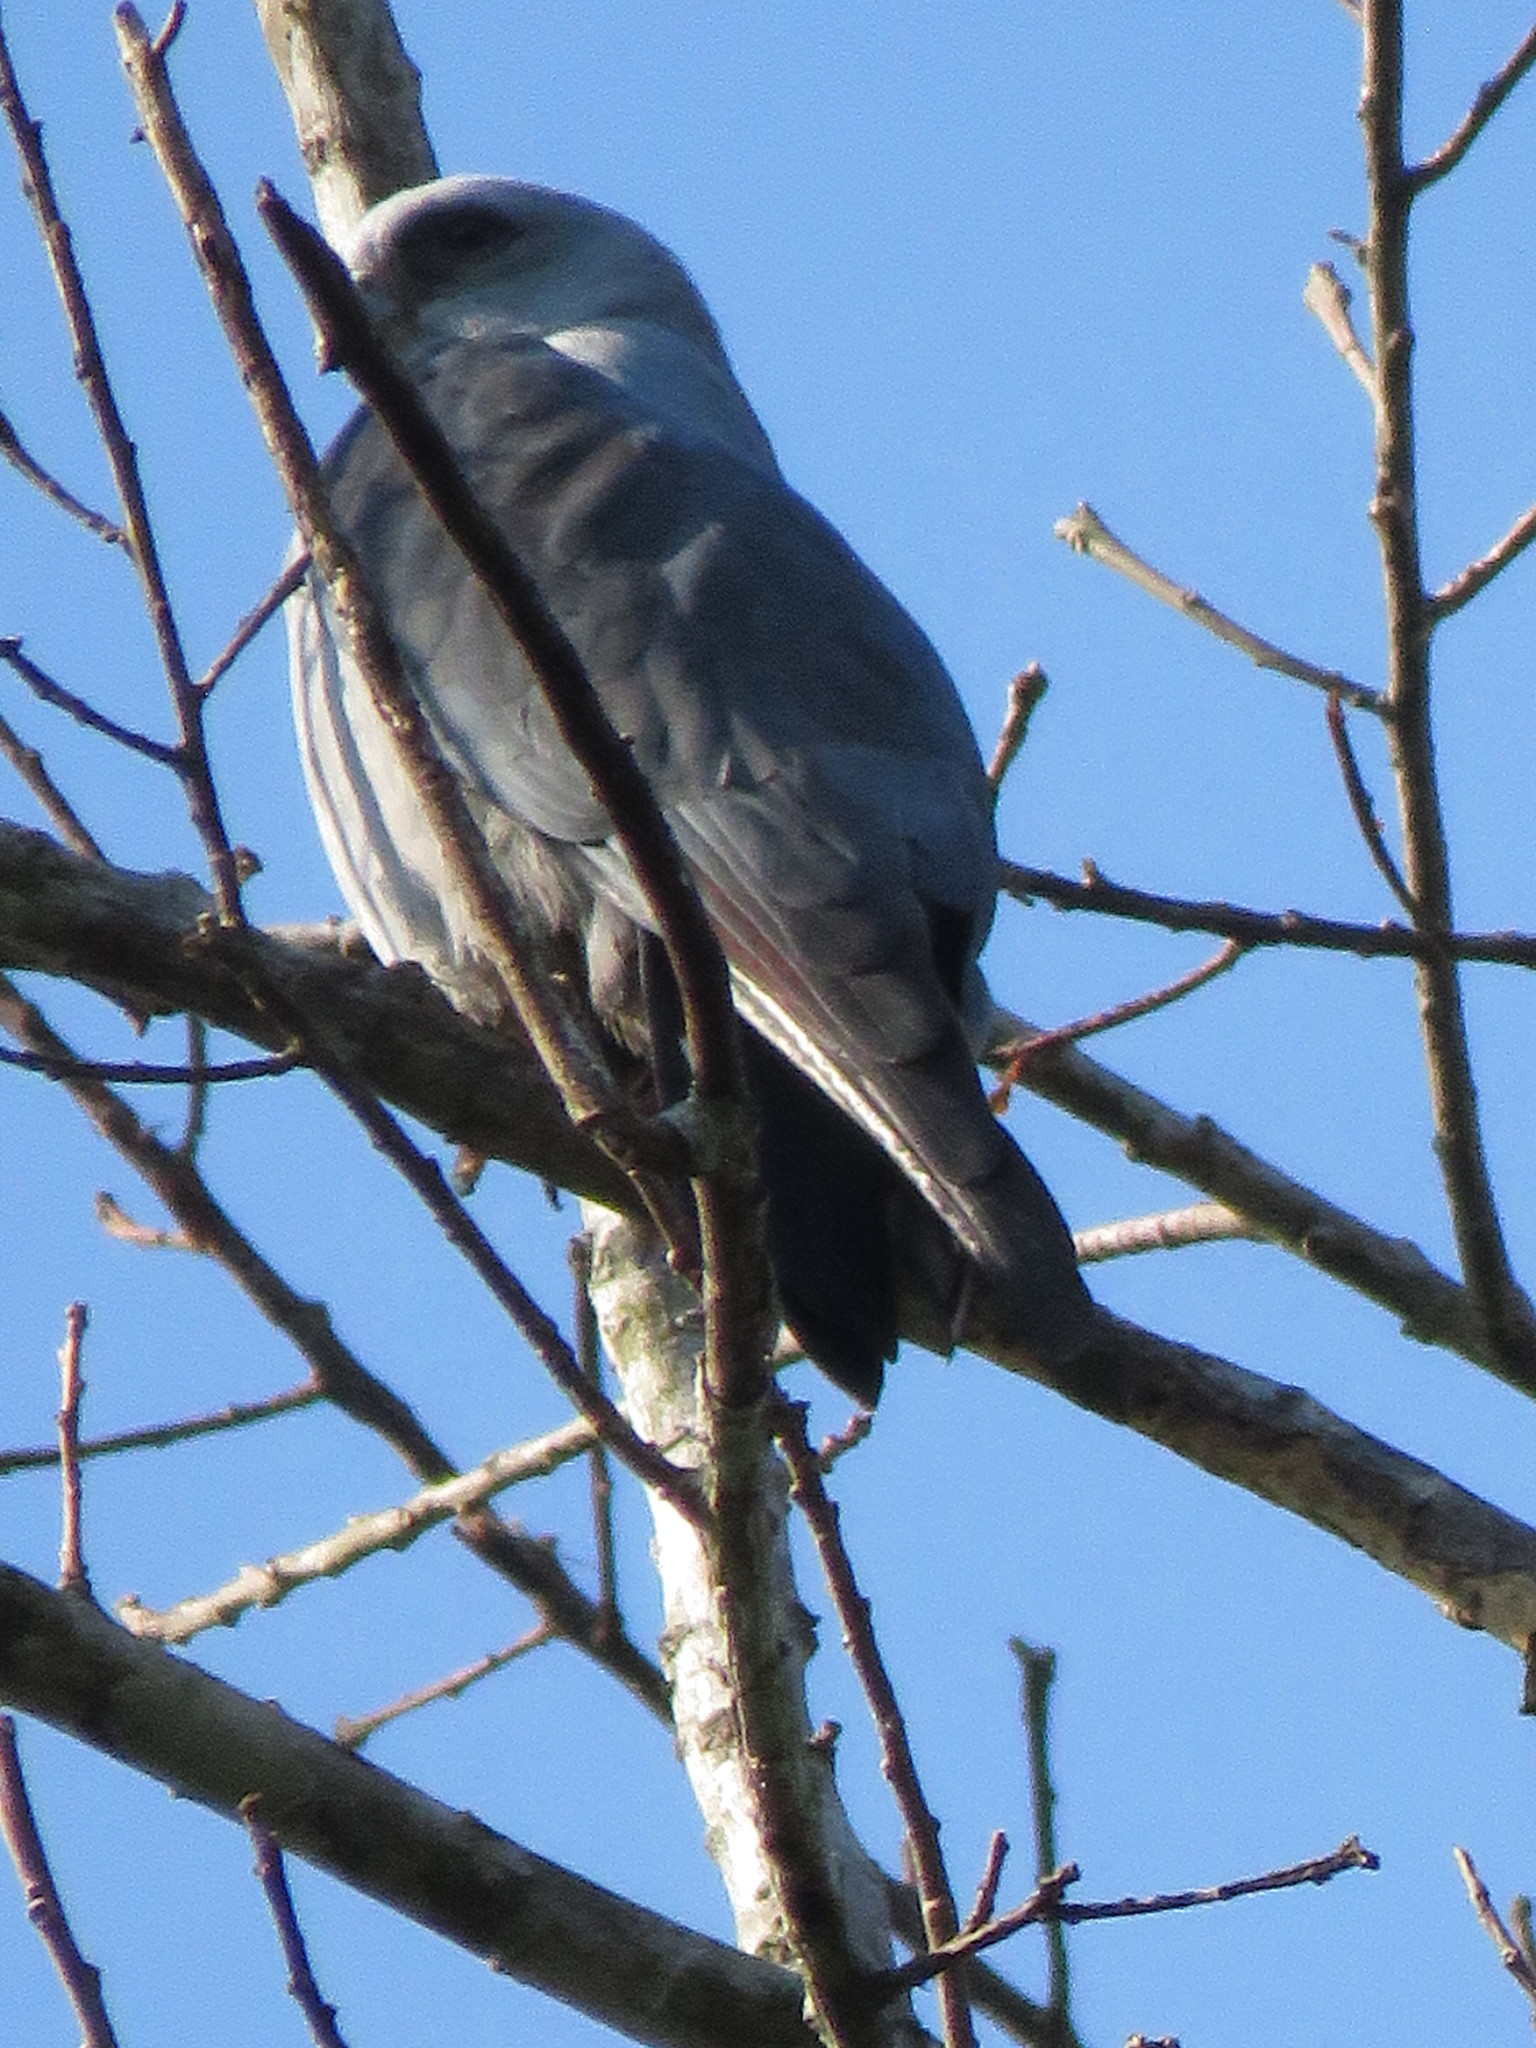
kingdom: Animalia
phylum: Chordata
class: Aves
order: Accipitriformes
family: Accipitridae
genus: Ictinia
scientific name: Ictinia plumbea
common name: Plumbeous kite
